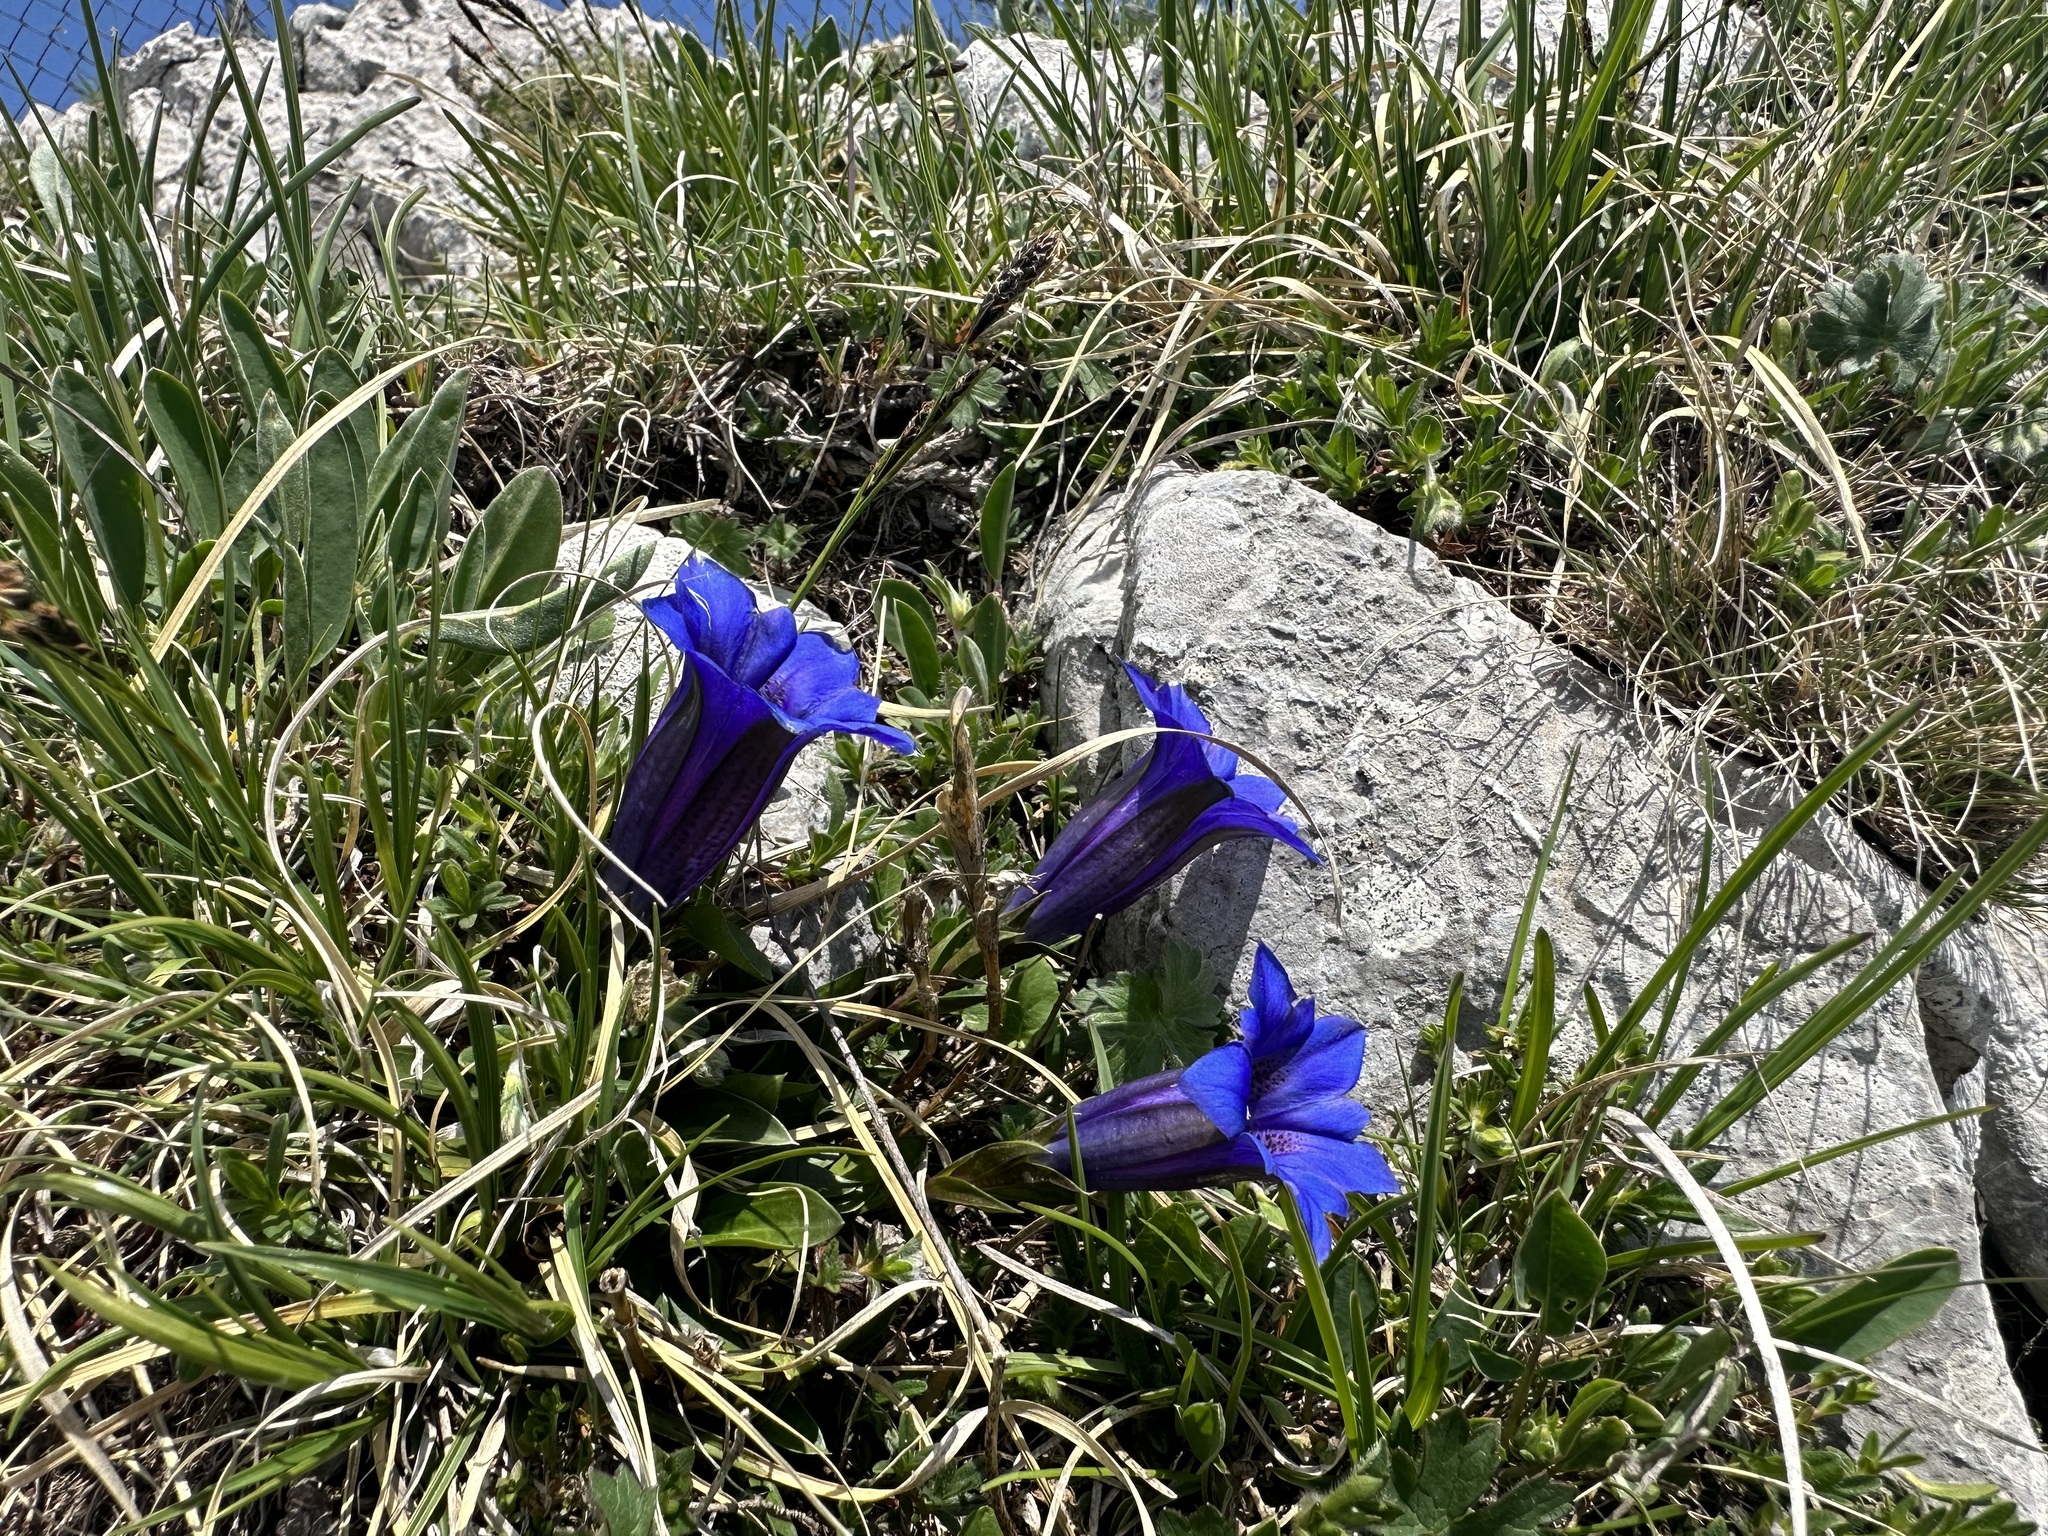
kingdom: Plantae
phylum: Tracheophyta
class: Magnoliopsida
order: Gentianales
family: Gentianaceae
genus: Gentiana
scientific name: Gentiana clusii
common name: Trumpet gentian
